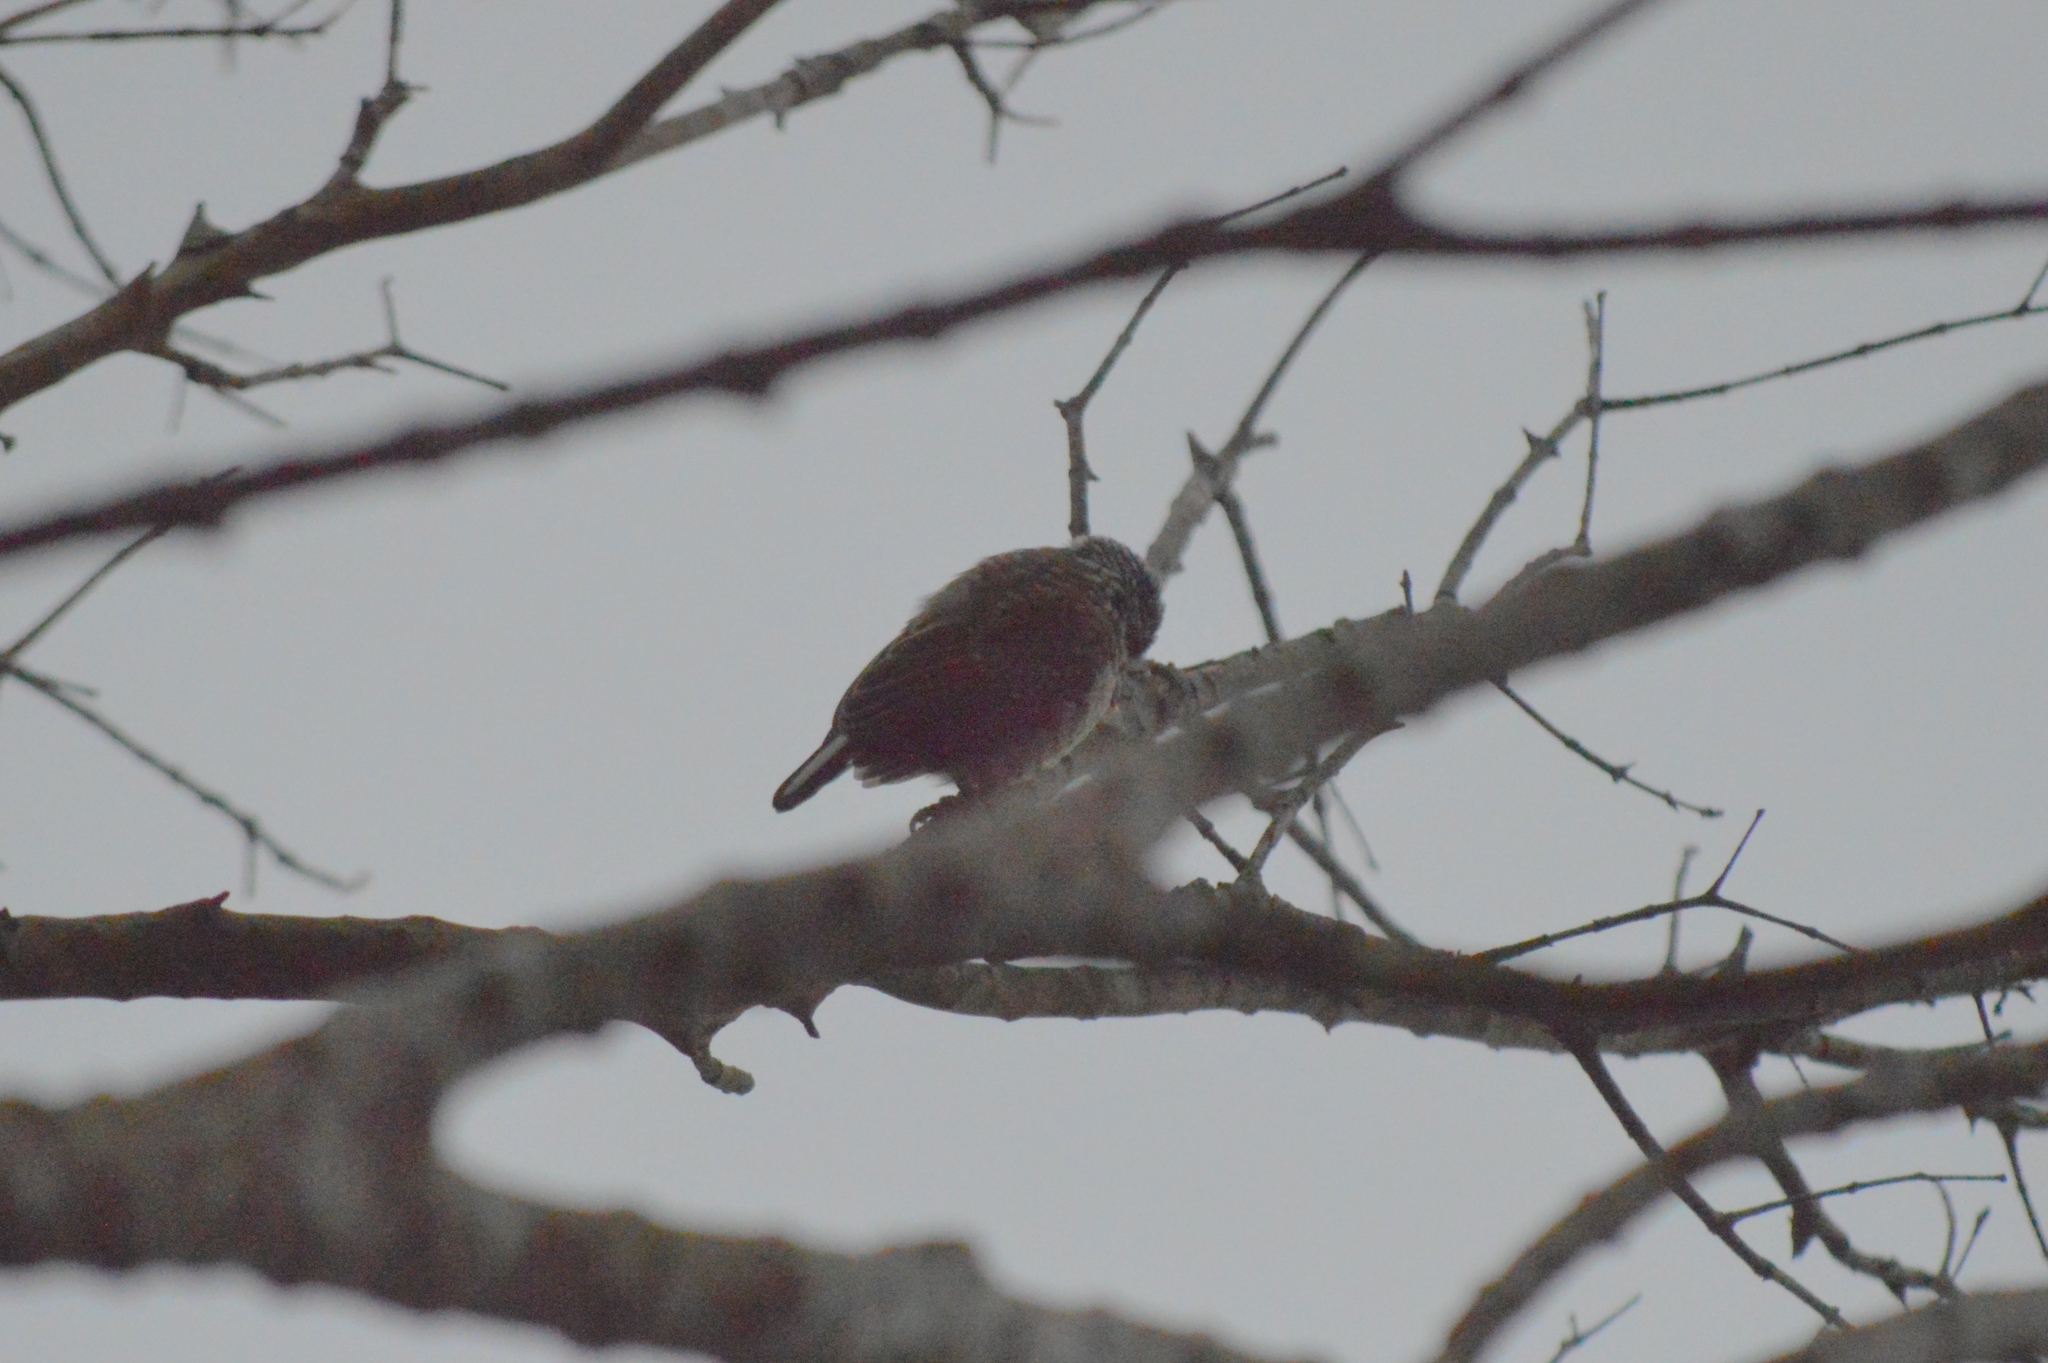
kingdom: Animalia
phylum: Chordata
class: Aves
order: Piciformes
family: Picidae
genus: Picumnus
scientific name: Picumnus albosquamatus
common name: White-wedged piculet
